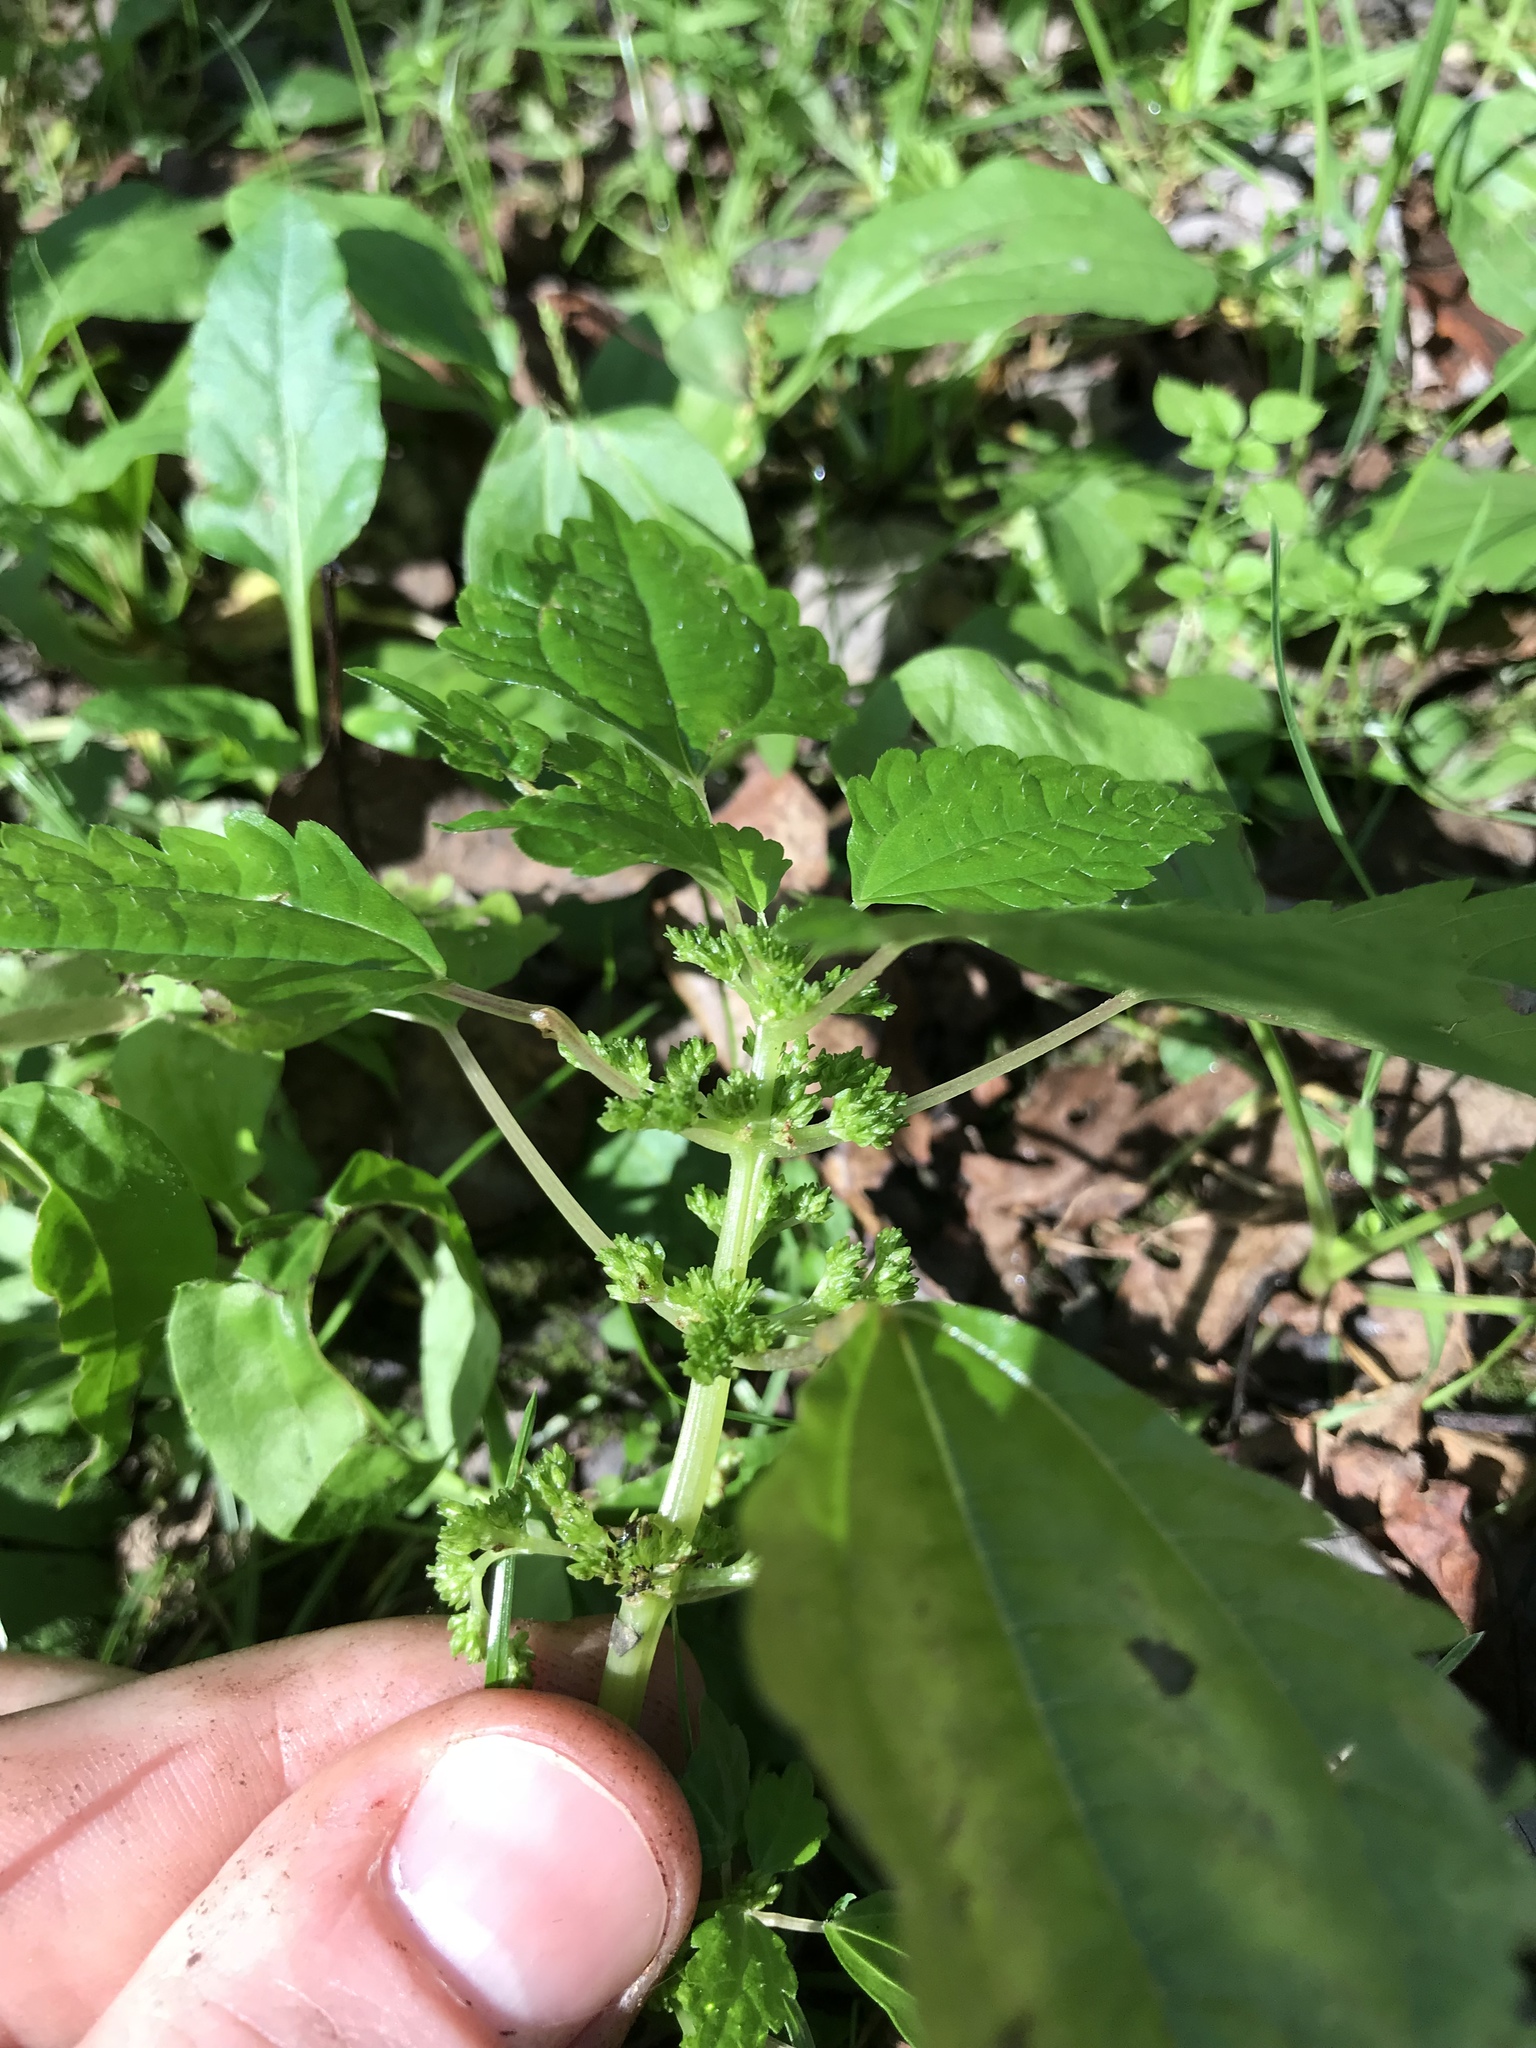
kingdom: Plantae
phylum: Tracheophyta
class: Magnoliopsida
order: Rosales
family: Urticaceae
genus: Pilea
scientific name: Pilea pumila
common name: Clearweed
